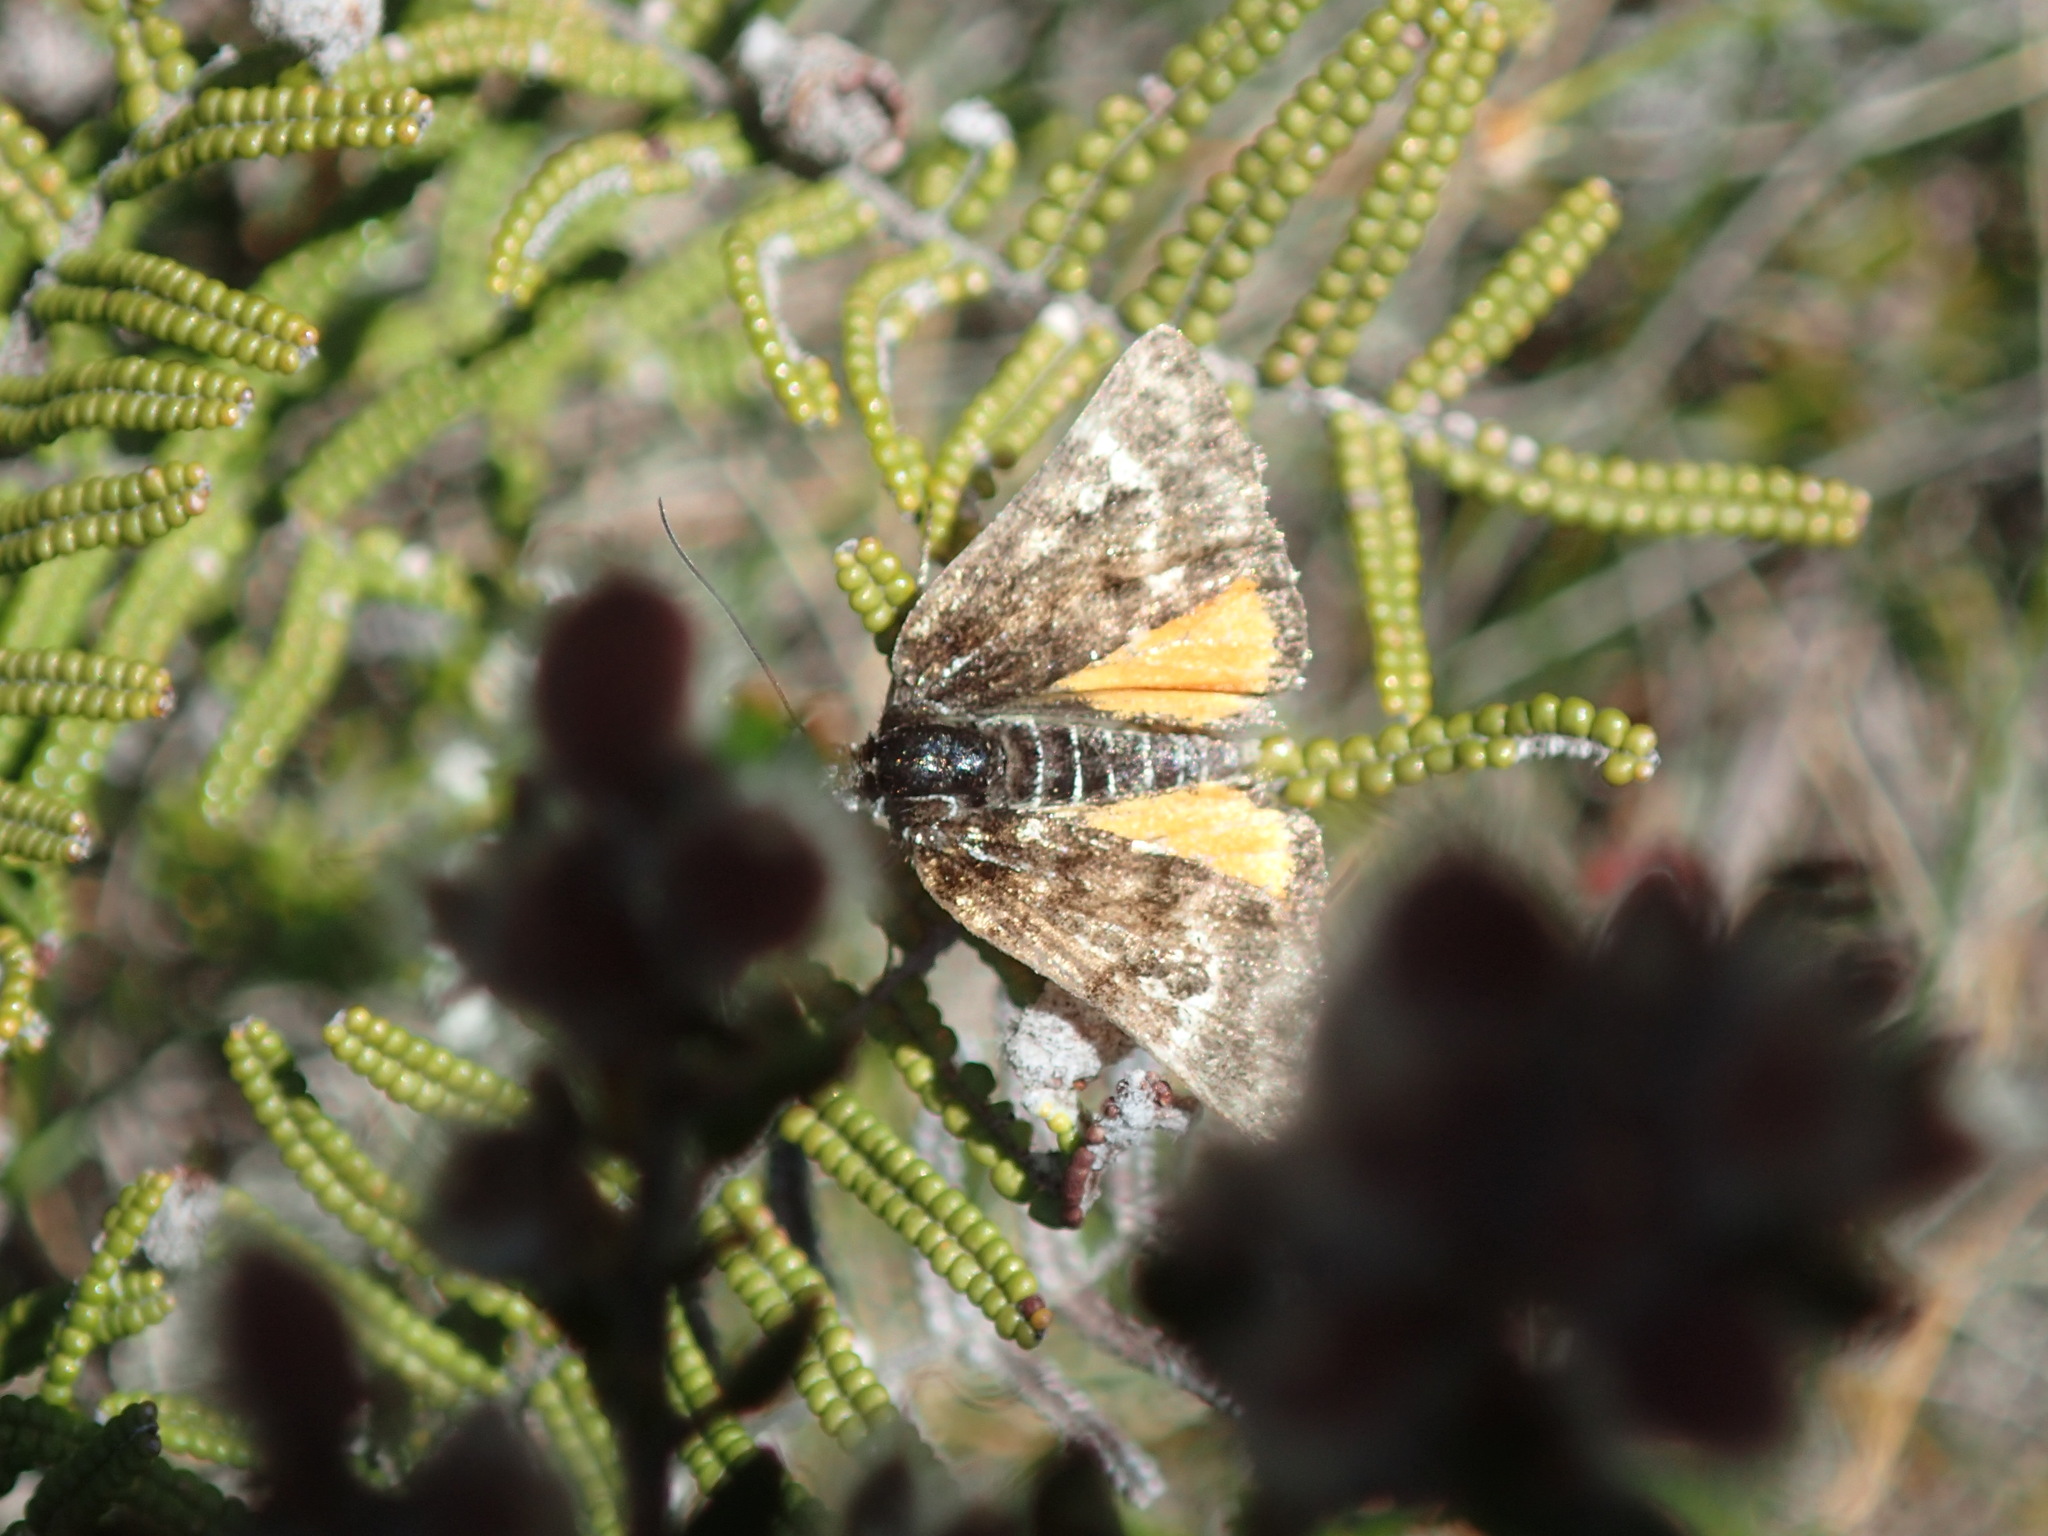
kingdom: Animalia
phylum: Arthropoda
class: Insecta
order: Lepidoptera
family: Geometridae
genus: Dirce
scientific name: Dirce solaris
